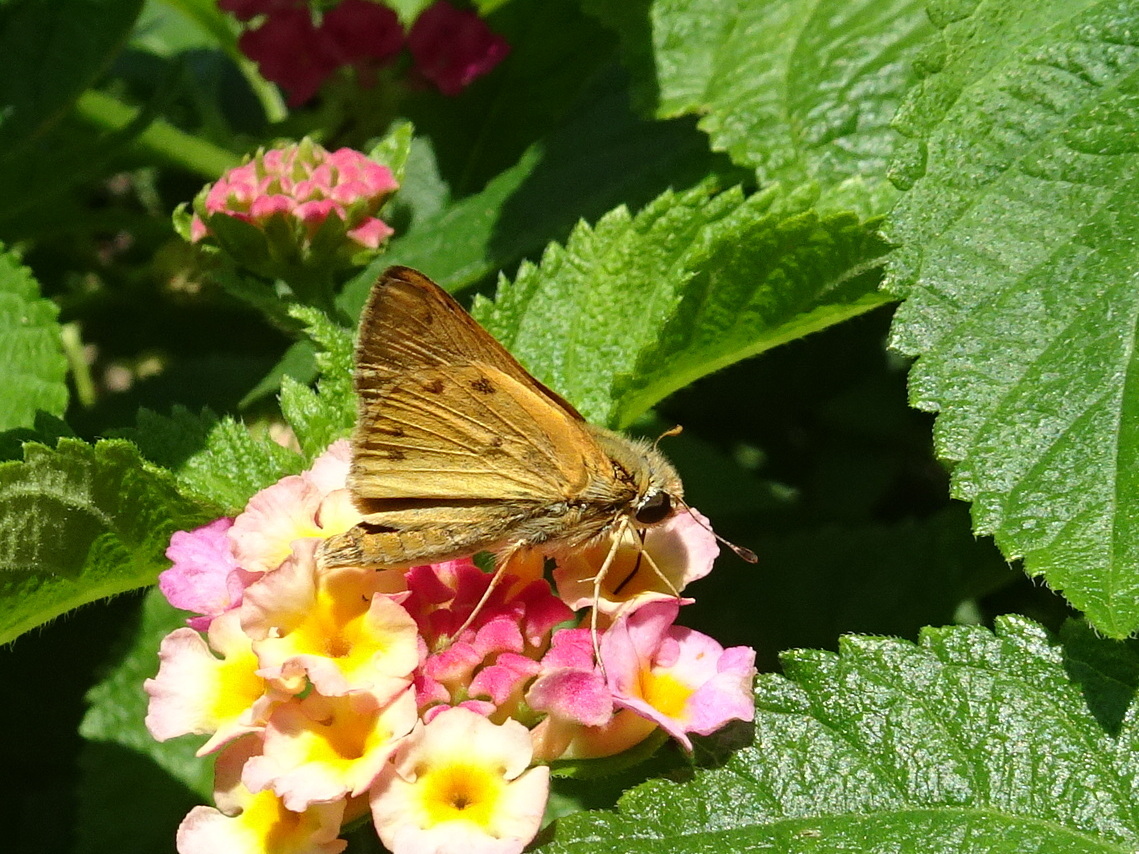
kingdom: Animalia
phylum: Arthropoda
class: Insecta
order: Lepidoptera
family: Hesperiidae
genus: Hylephila
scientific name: Hylephila phyleus
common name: Fiery skipper
